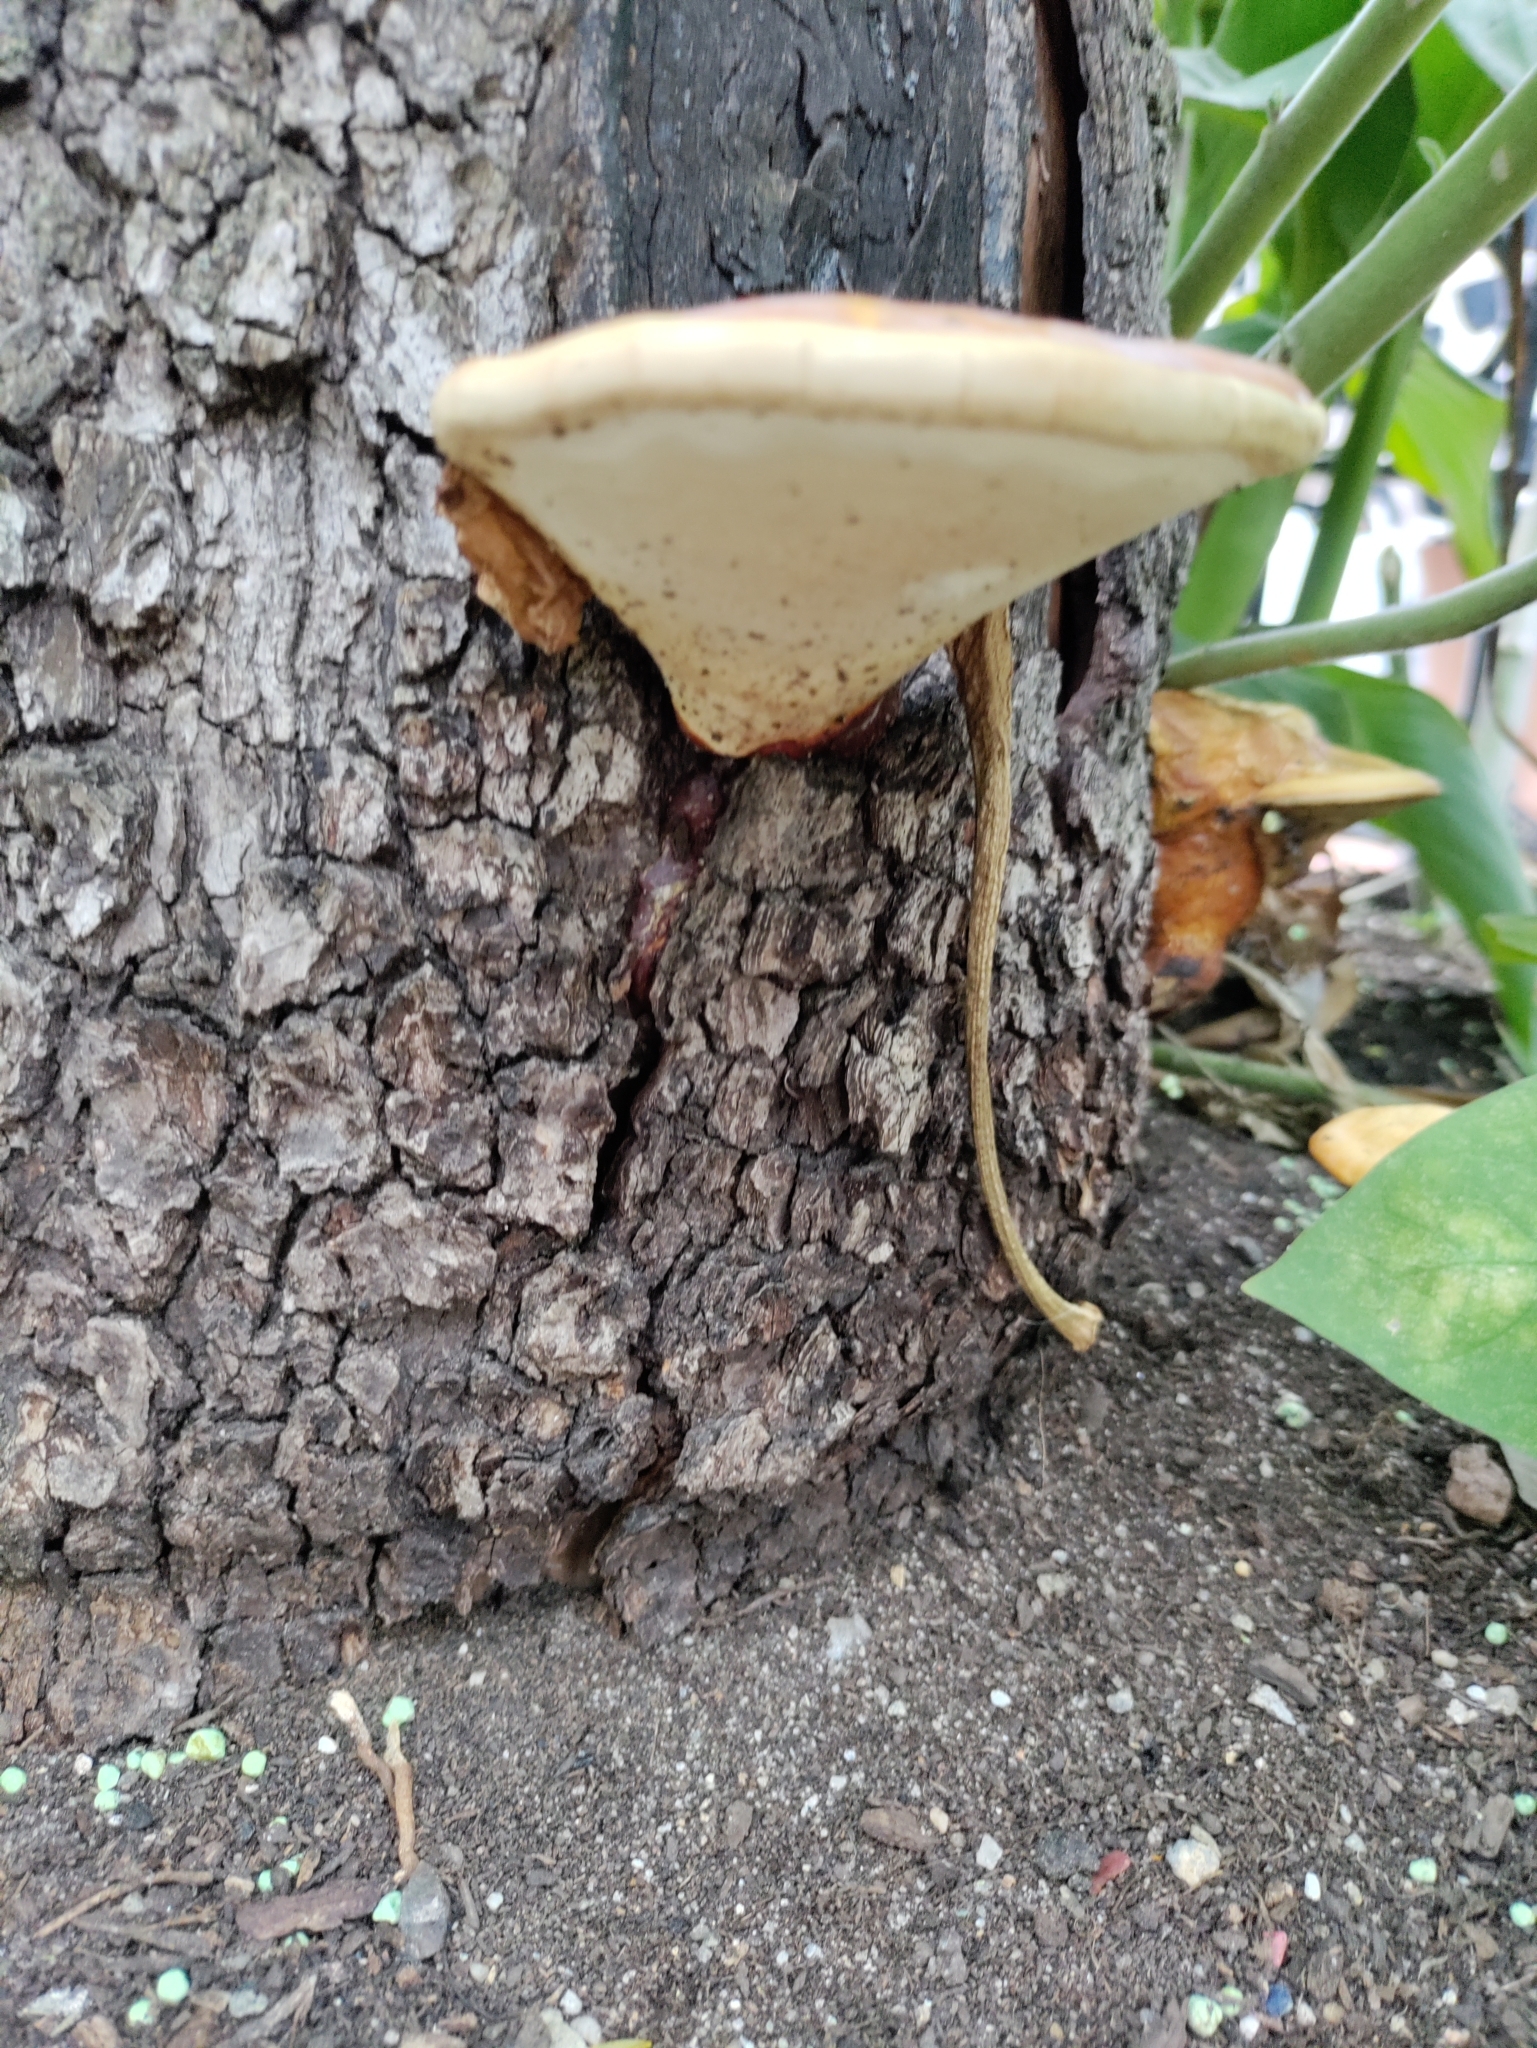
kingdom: Fungi
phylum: Basidiomycota
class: Agaricomycetes
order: Polyporales
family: Polyporaceae
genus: Ganoderma
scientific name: Ganoderma curtisii
